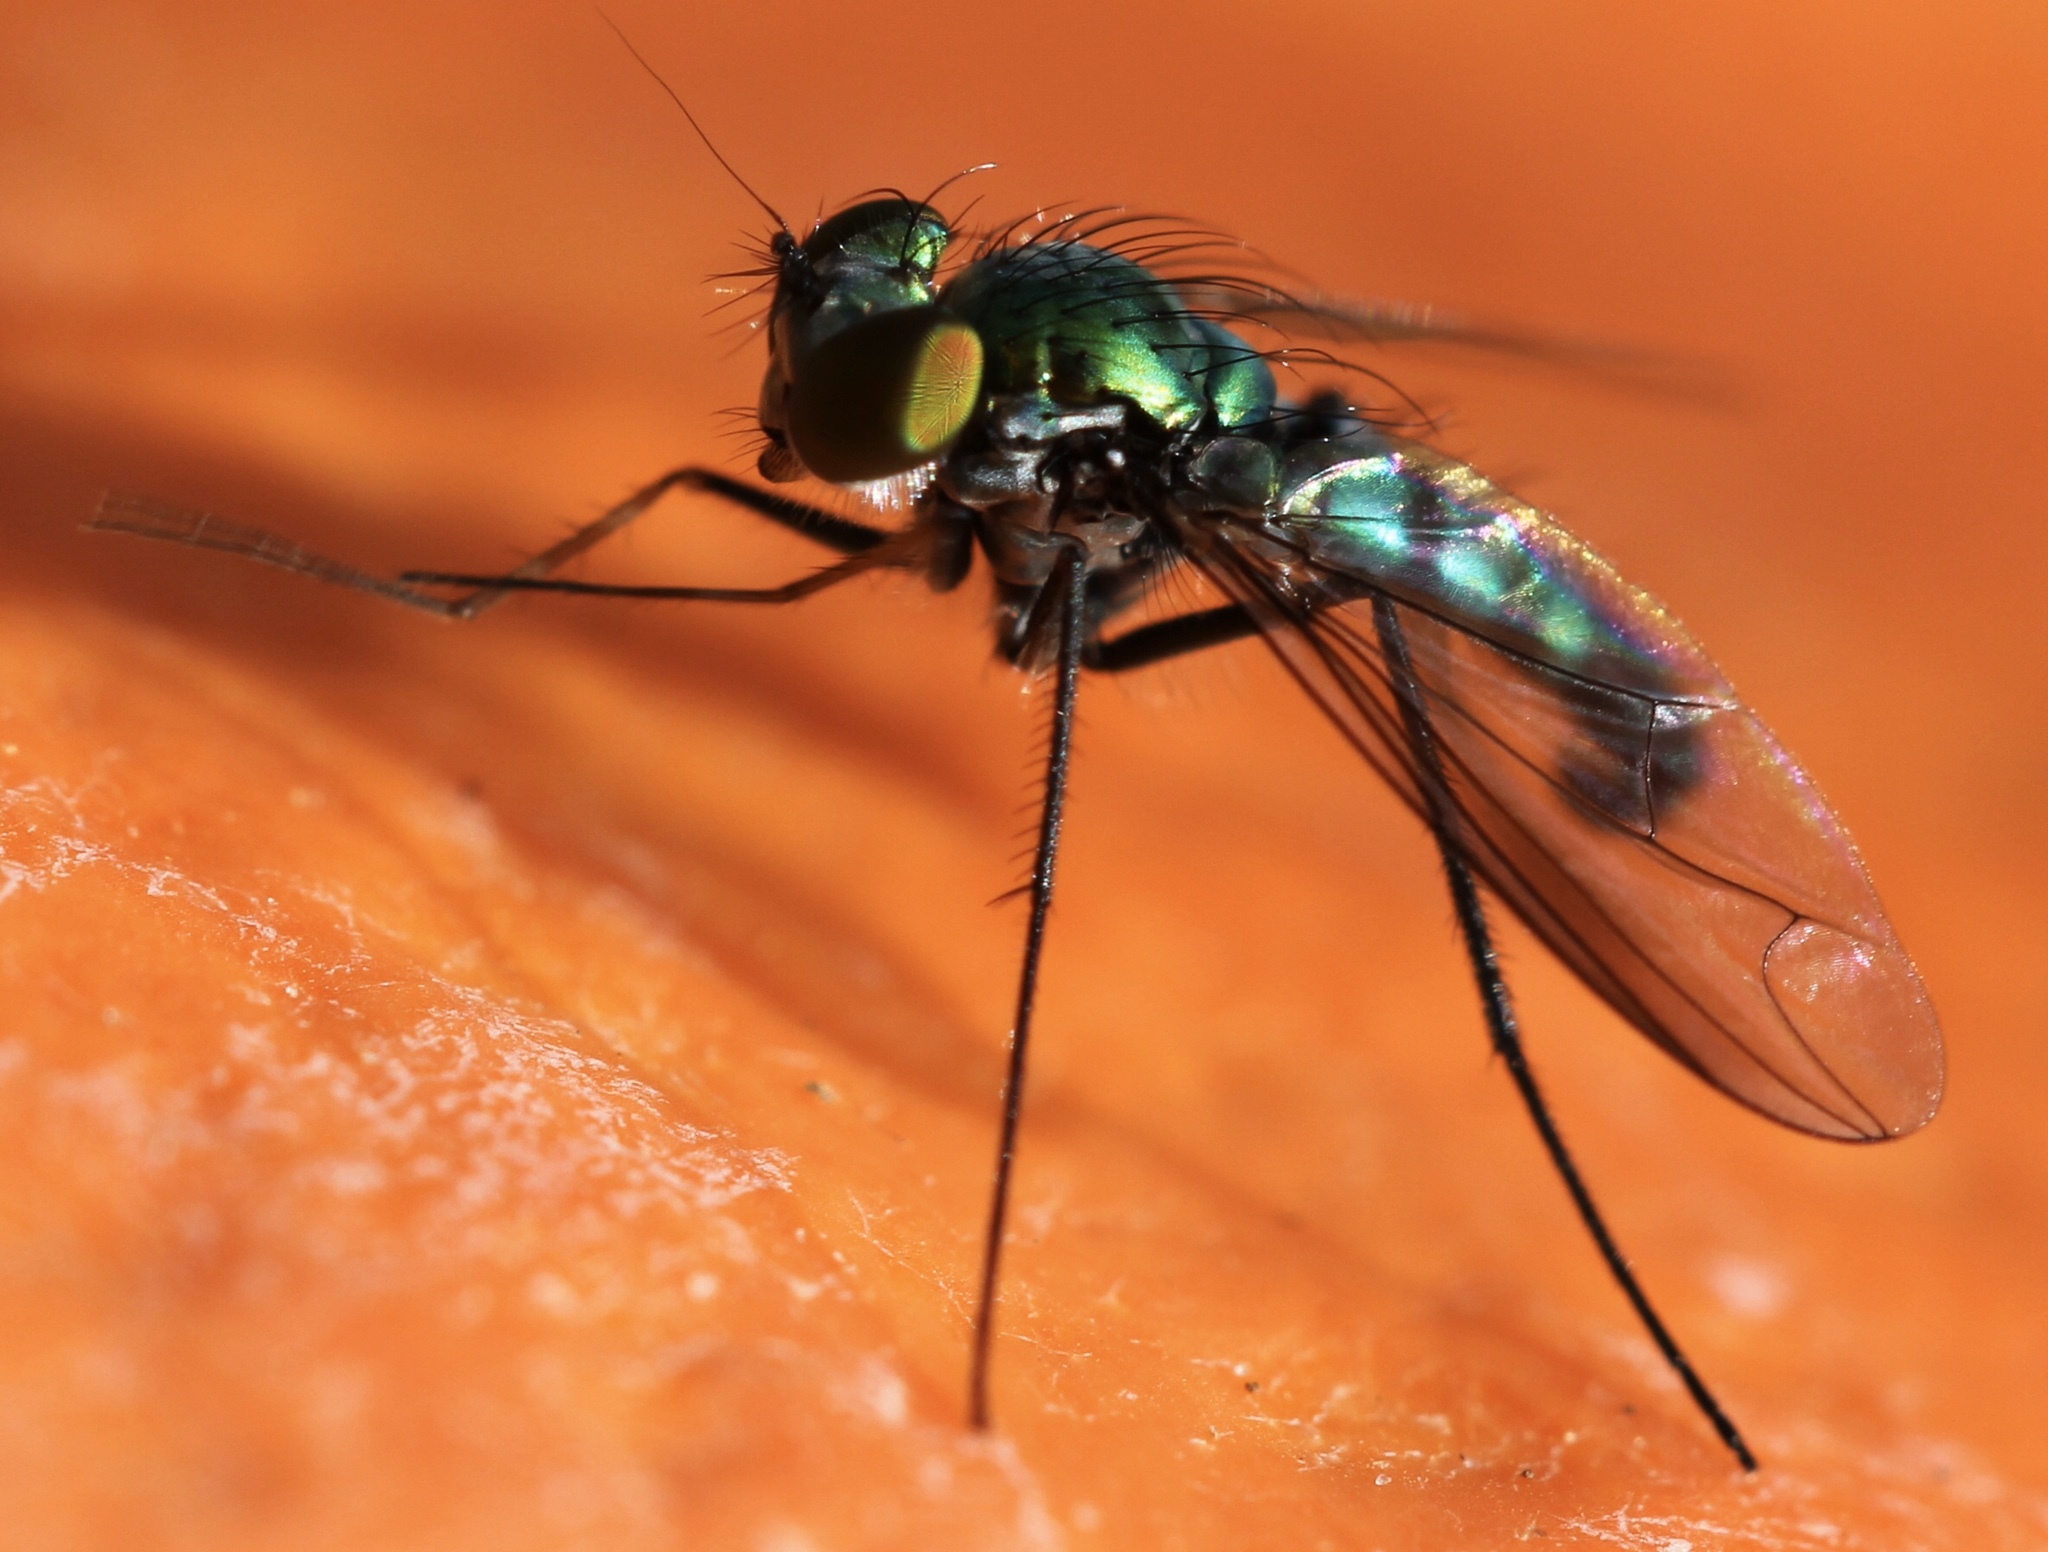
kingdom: Animalia
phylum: Arthropoda
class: Insecta
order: Diptera
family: Dolichopodidae
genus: Condylostylus
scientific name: Condylostylus longicornis
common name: Long-legged fly
